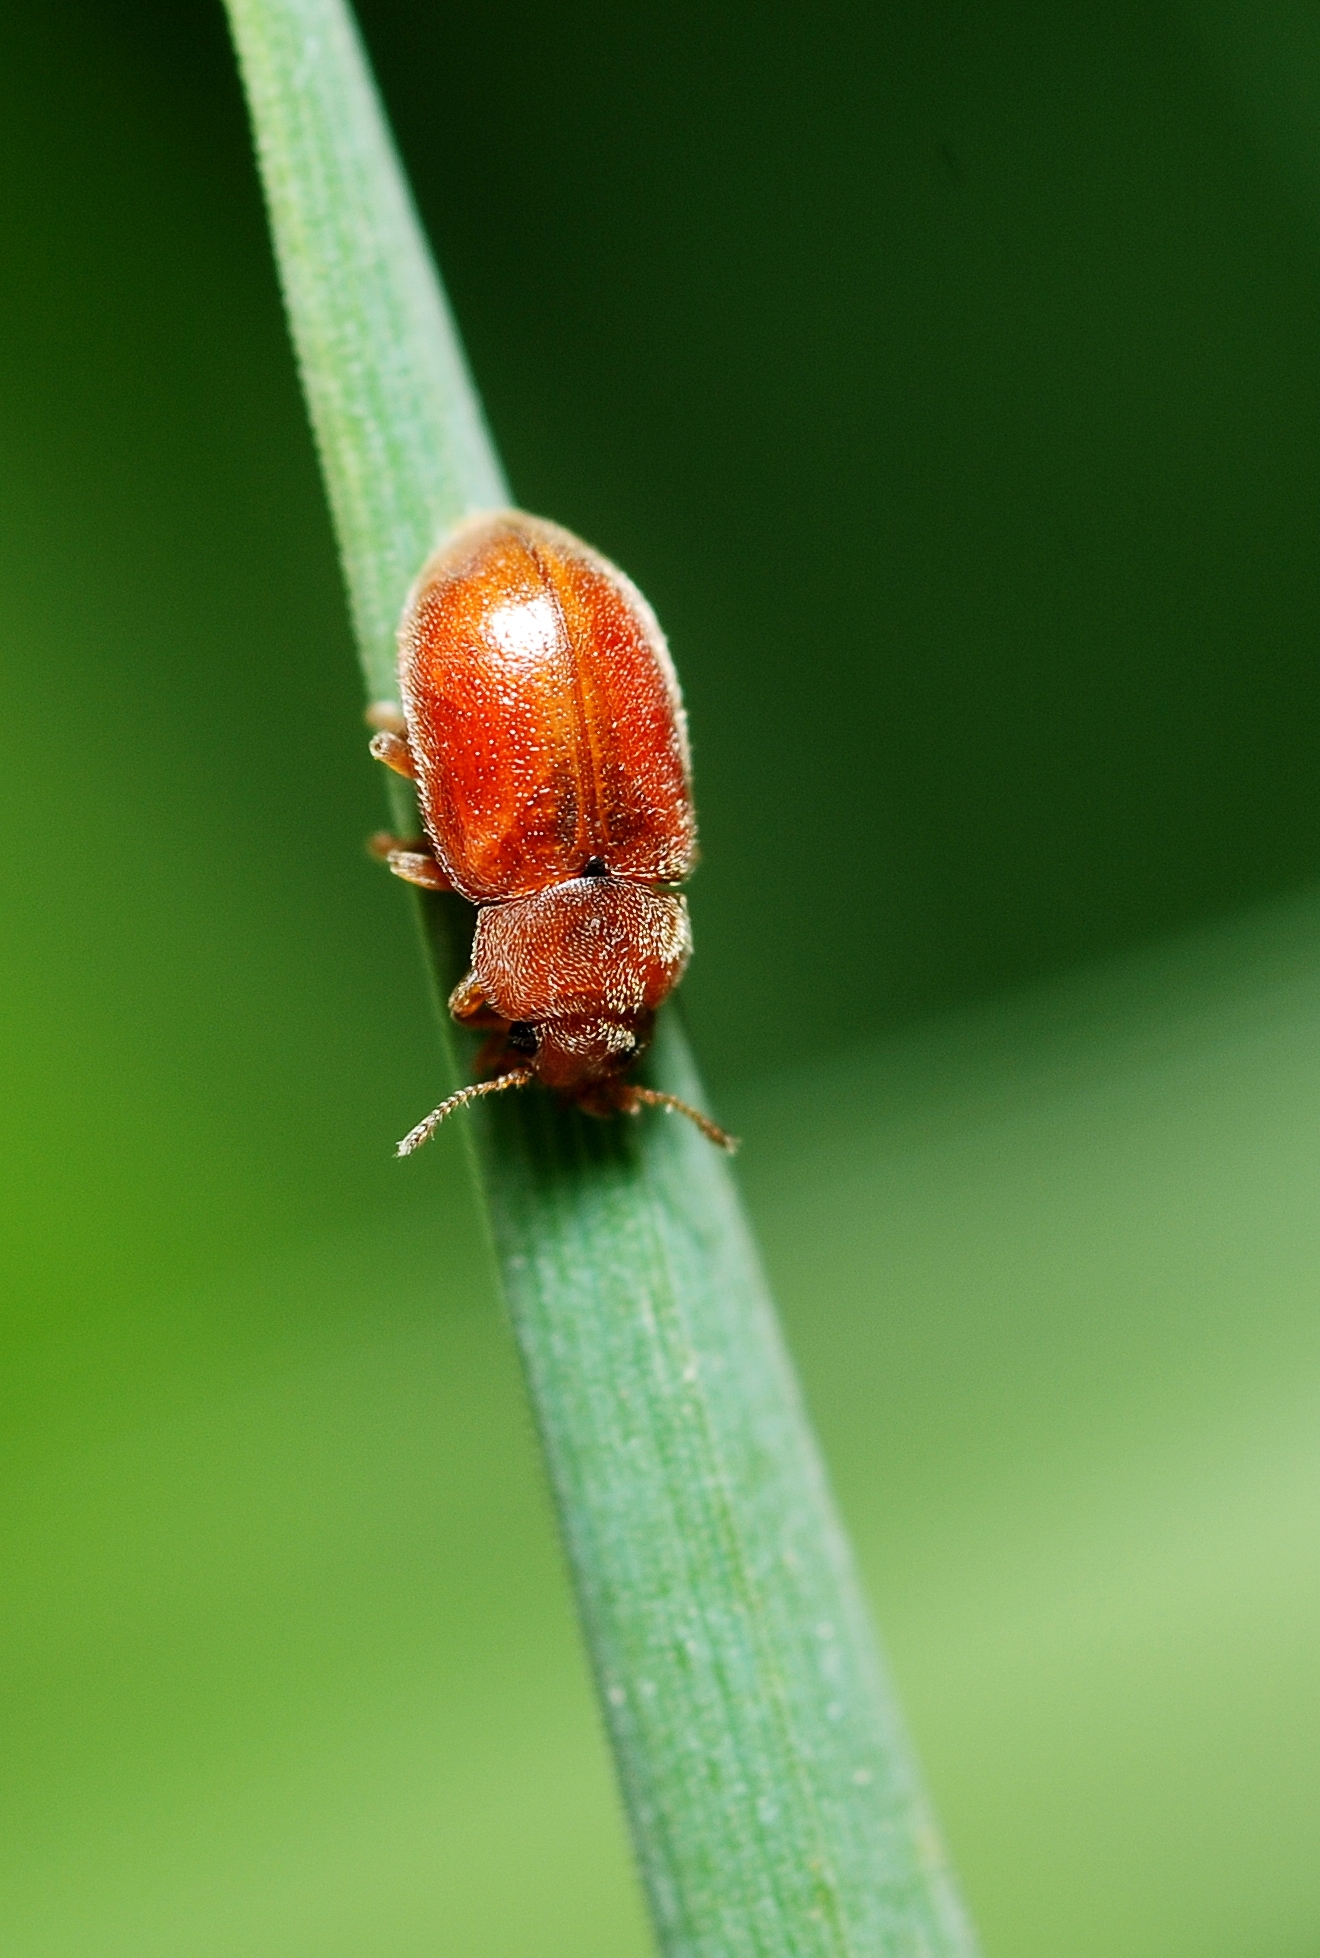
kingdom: Animalia
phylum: Arthropoda
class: Insecta
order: Coleoptera
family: Coccinellidae
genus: Coccidula
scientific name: Coccidula rufa
